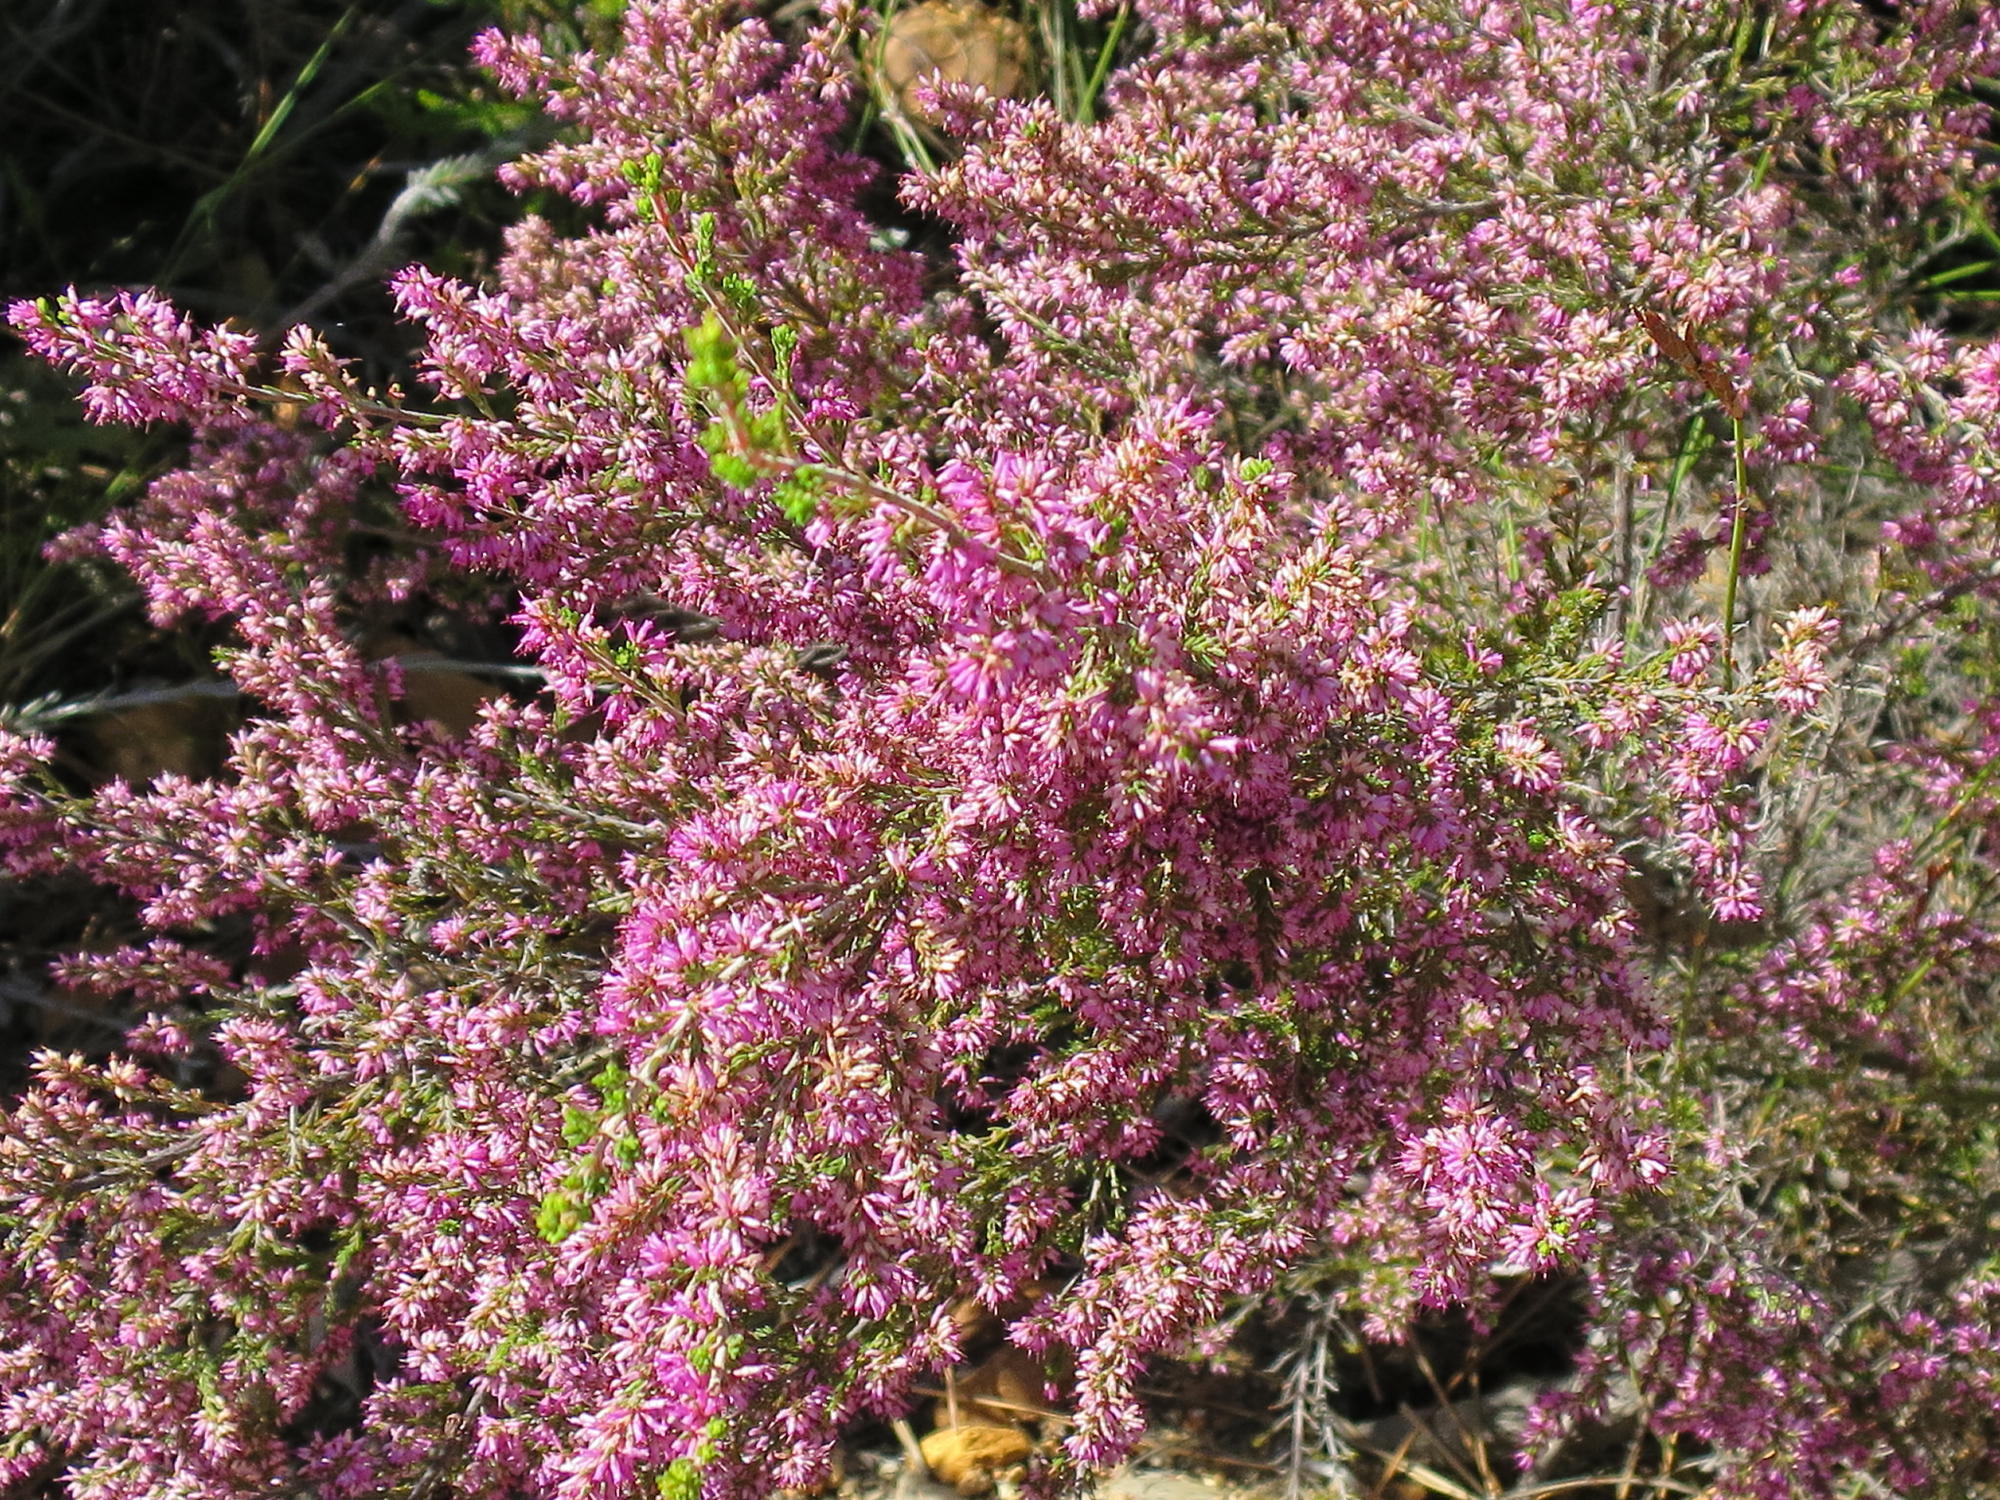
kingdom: Plantae
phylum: Tracheophyta
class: Magnoliopsida
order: Ericales
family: Ericaceae
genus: Erica
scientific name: Erica uberiflora
